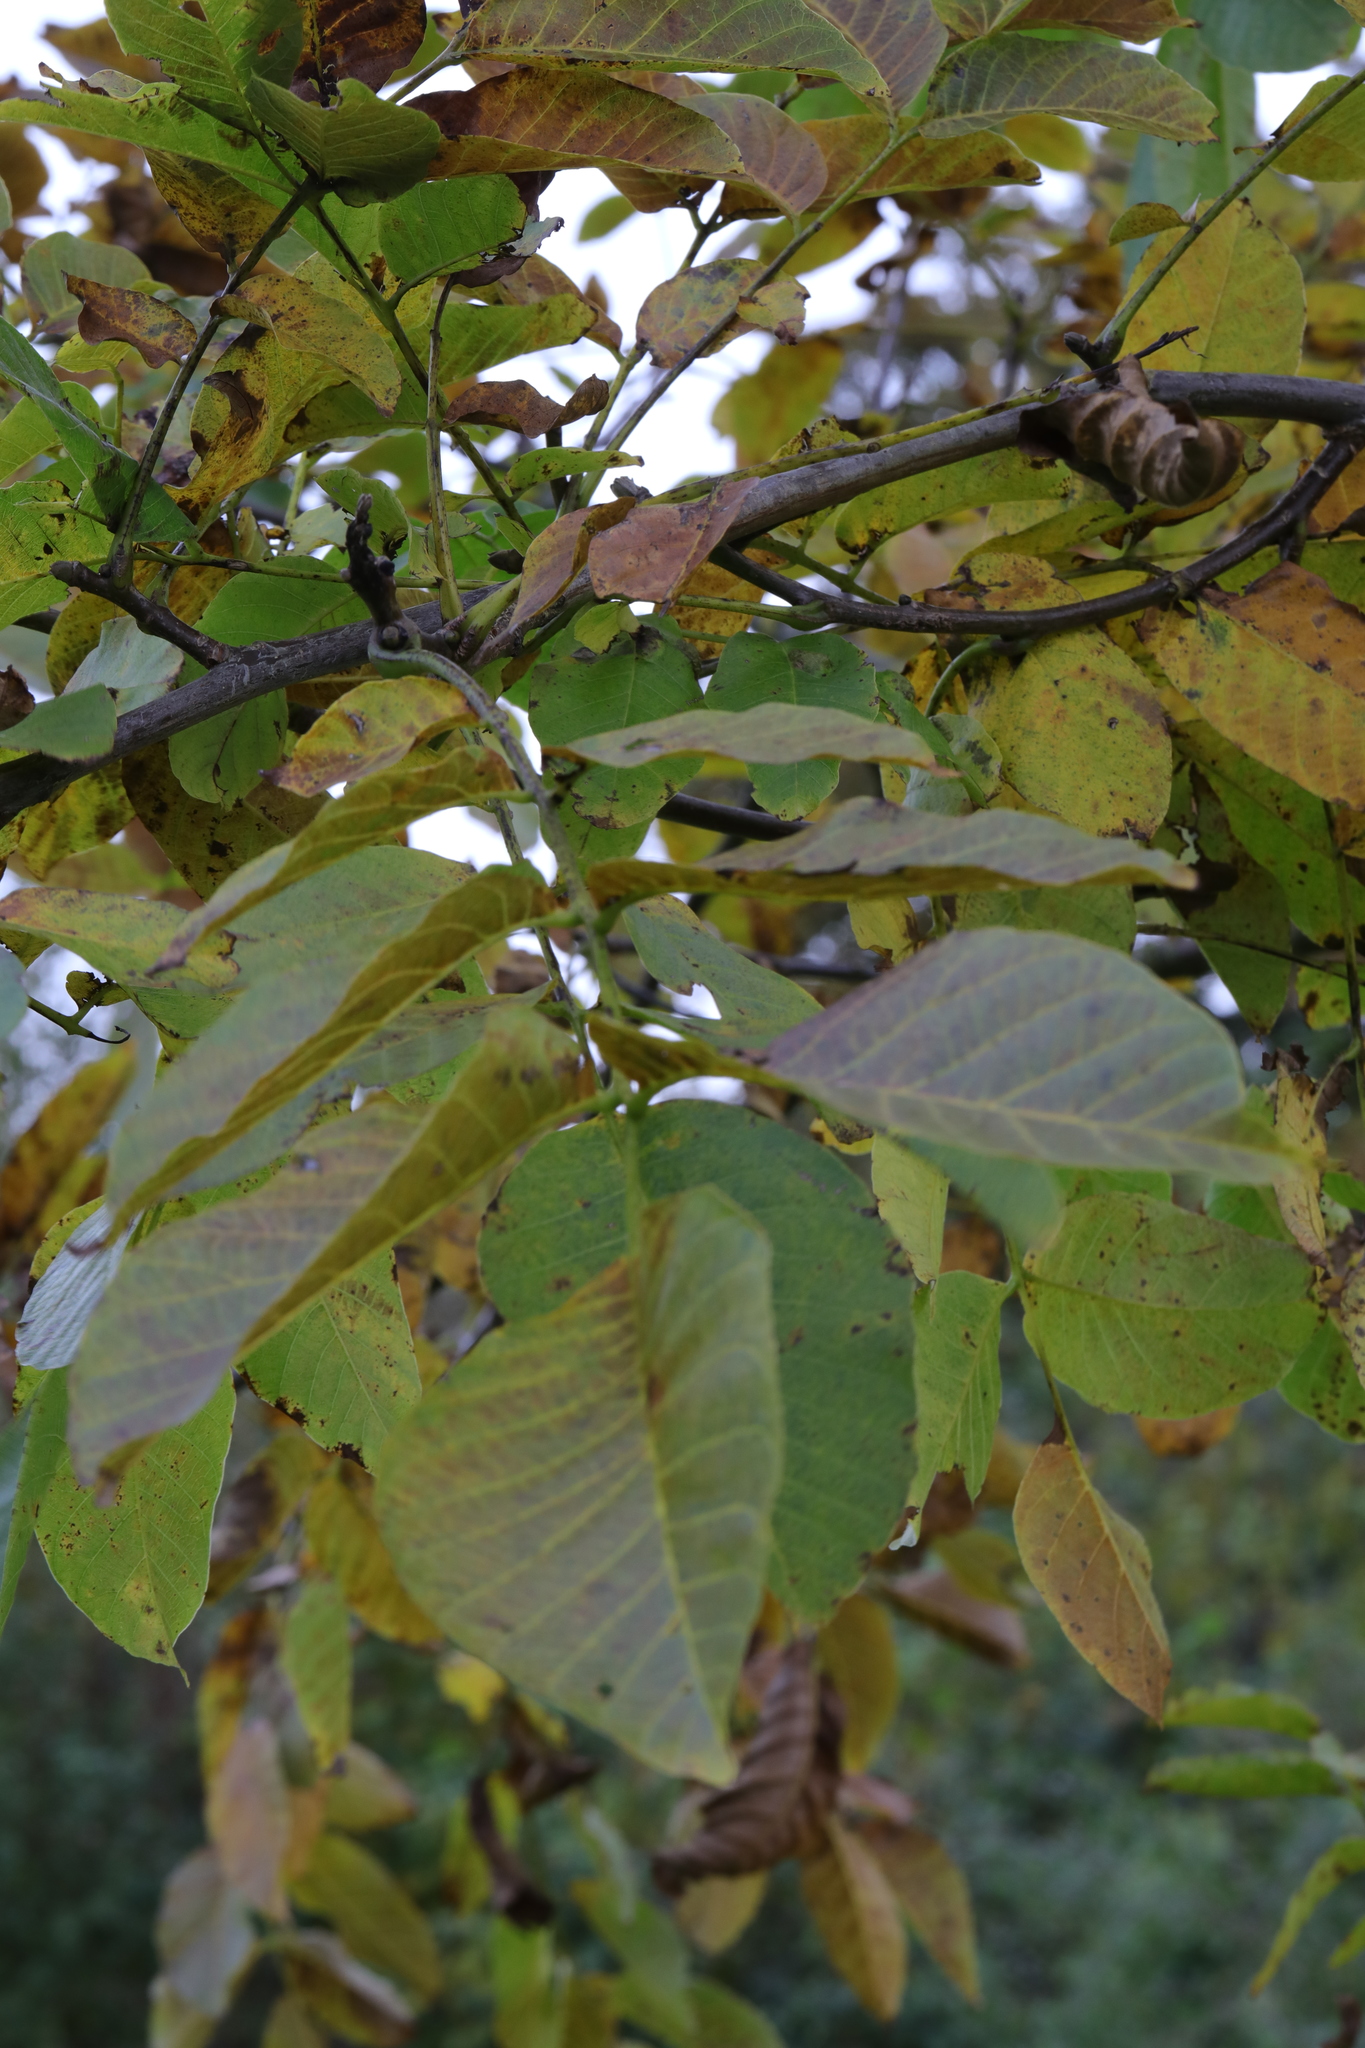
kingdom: Plantae
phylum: Tracheophyta
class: Magnoliopsida
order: Fagales
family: Juglandaceae
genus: Juglans
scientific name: Juglans regia
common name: Walnut
